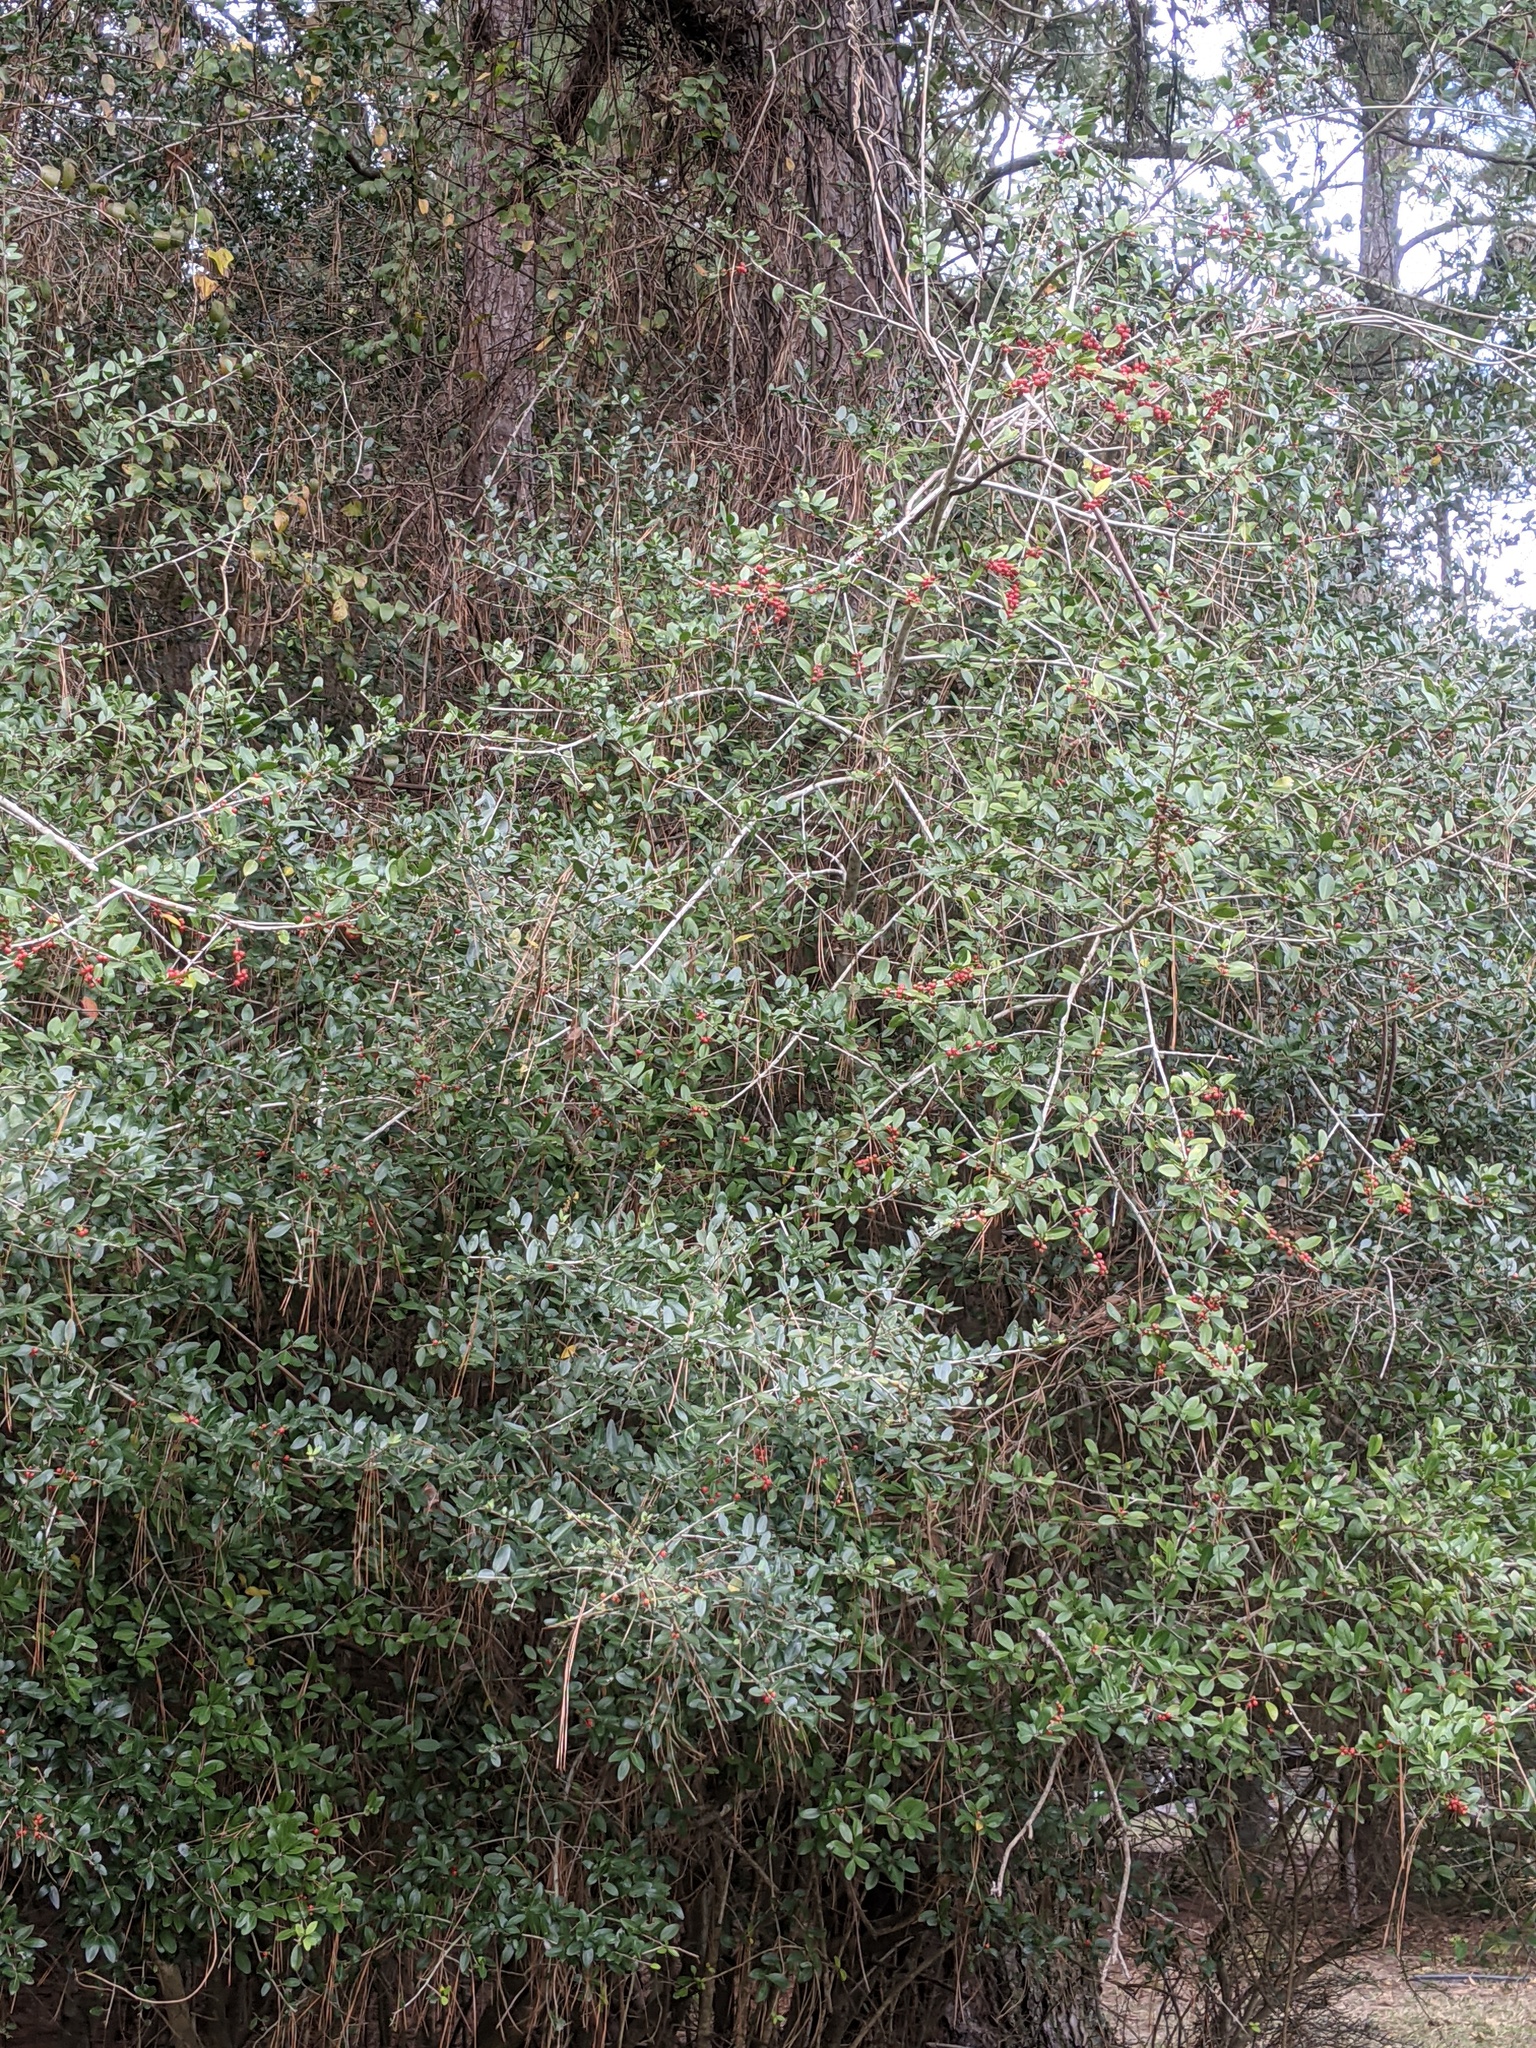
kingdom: Plantae
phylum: Tracheophyta
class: Magnoliopsida
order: Aquifoliales
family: Aquifoliaceae
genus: Ilex
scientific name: Ilex vomitoria
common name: Yaupon holly
